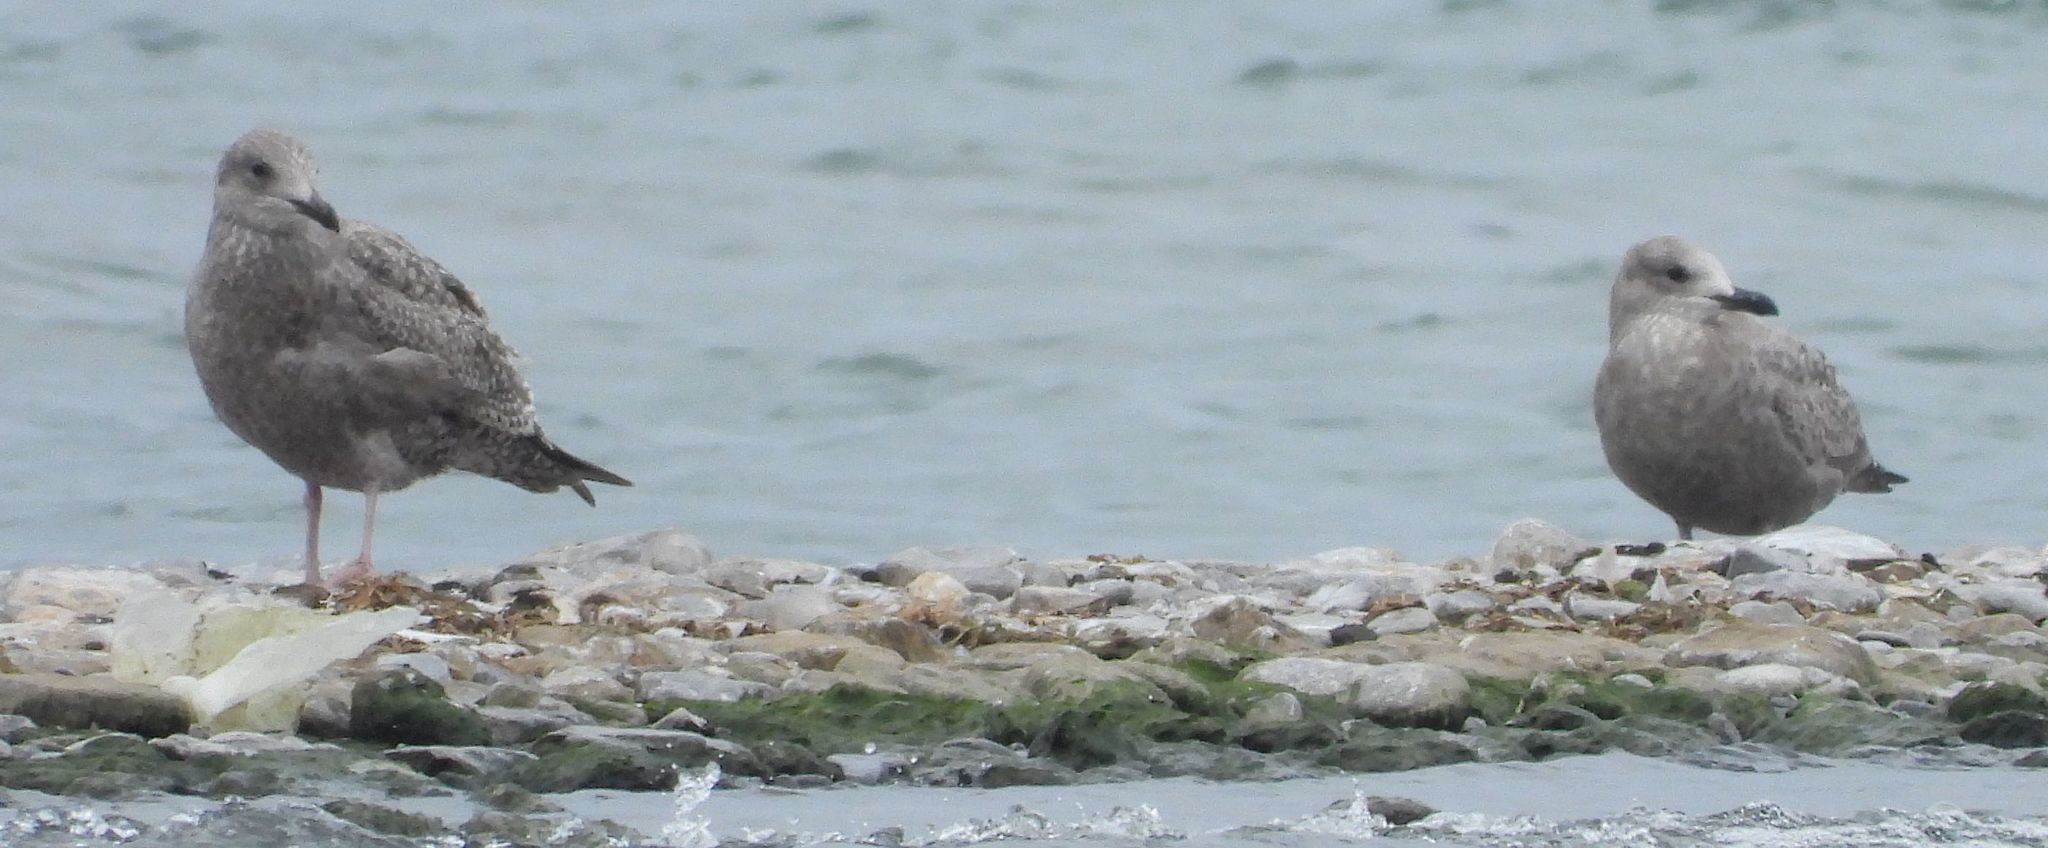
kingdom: Animalia
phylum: Chordata
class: Aves
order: Charadriiformes
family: Laridae
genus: Larus
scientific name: Larus argentatus
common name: Herring gull
